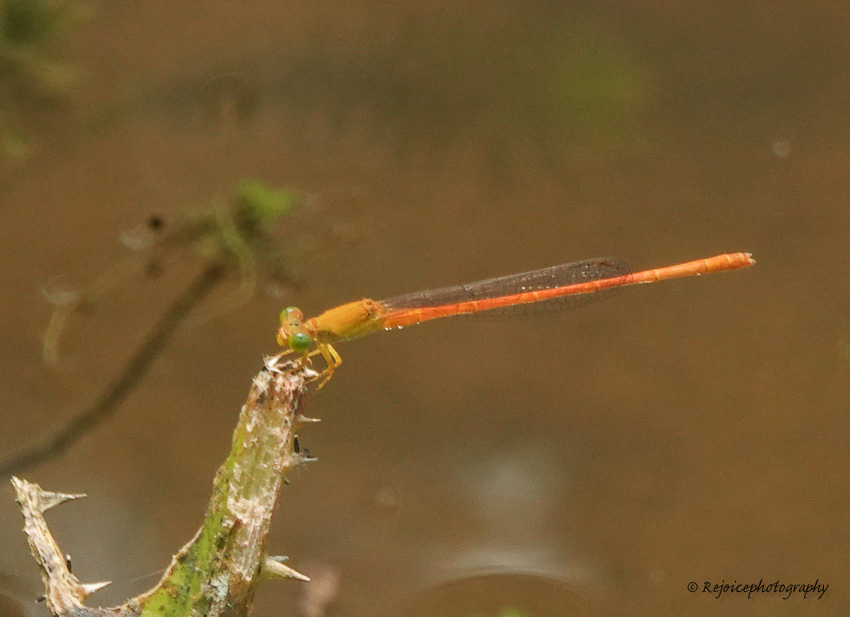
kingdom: Animalia
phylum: Arthropoda
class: Insecta
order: Odonata
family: Coenagrionidae
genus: Ceriagrion
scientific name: Ceriagrion rubiae
